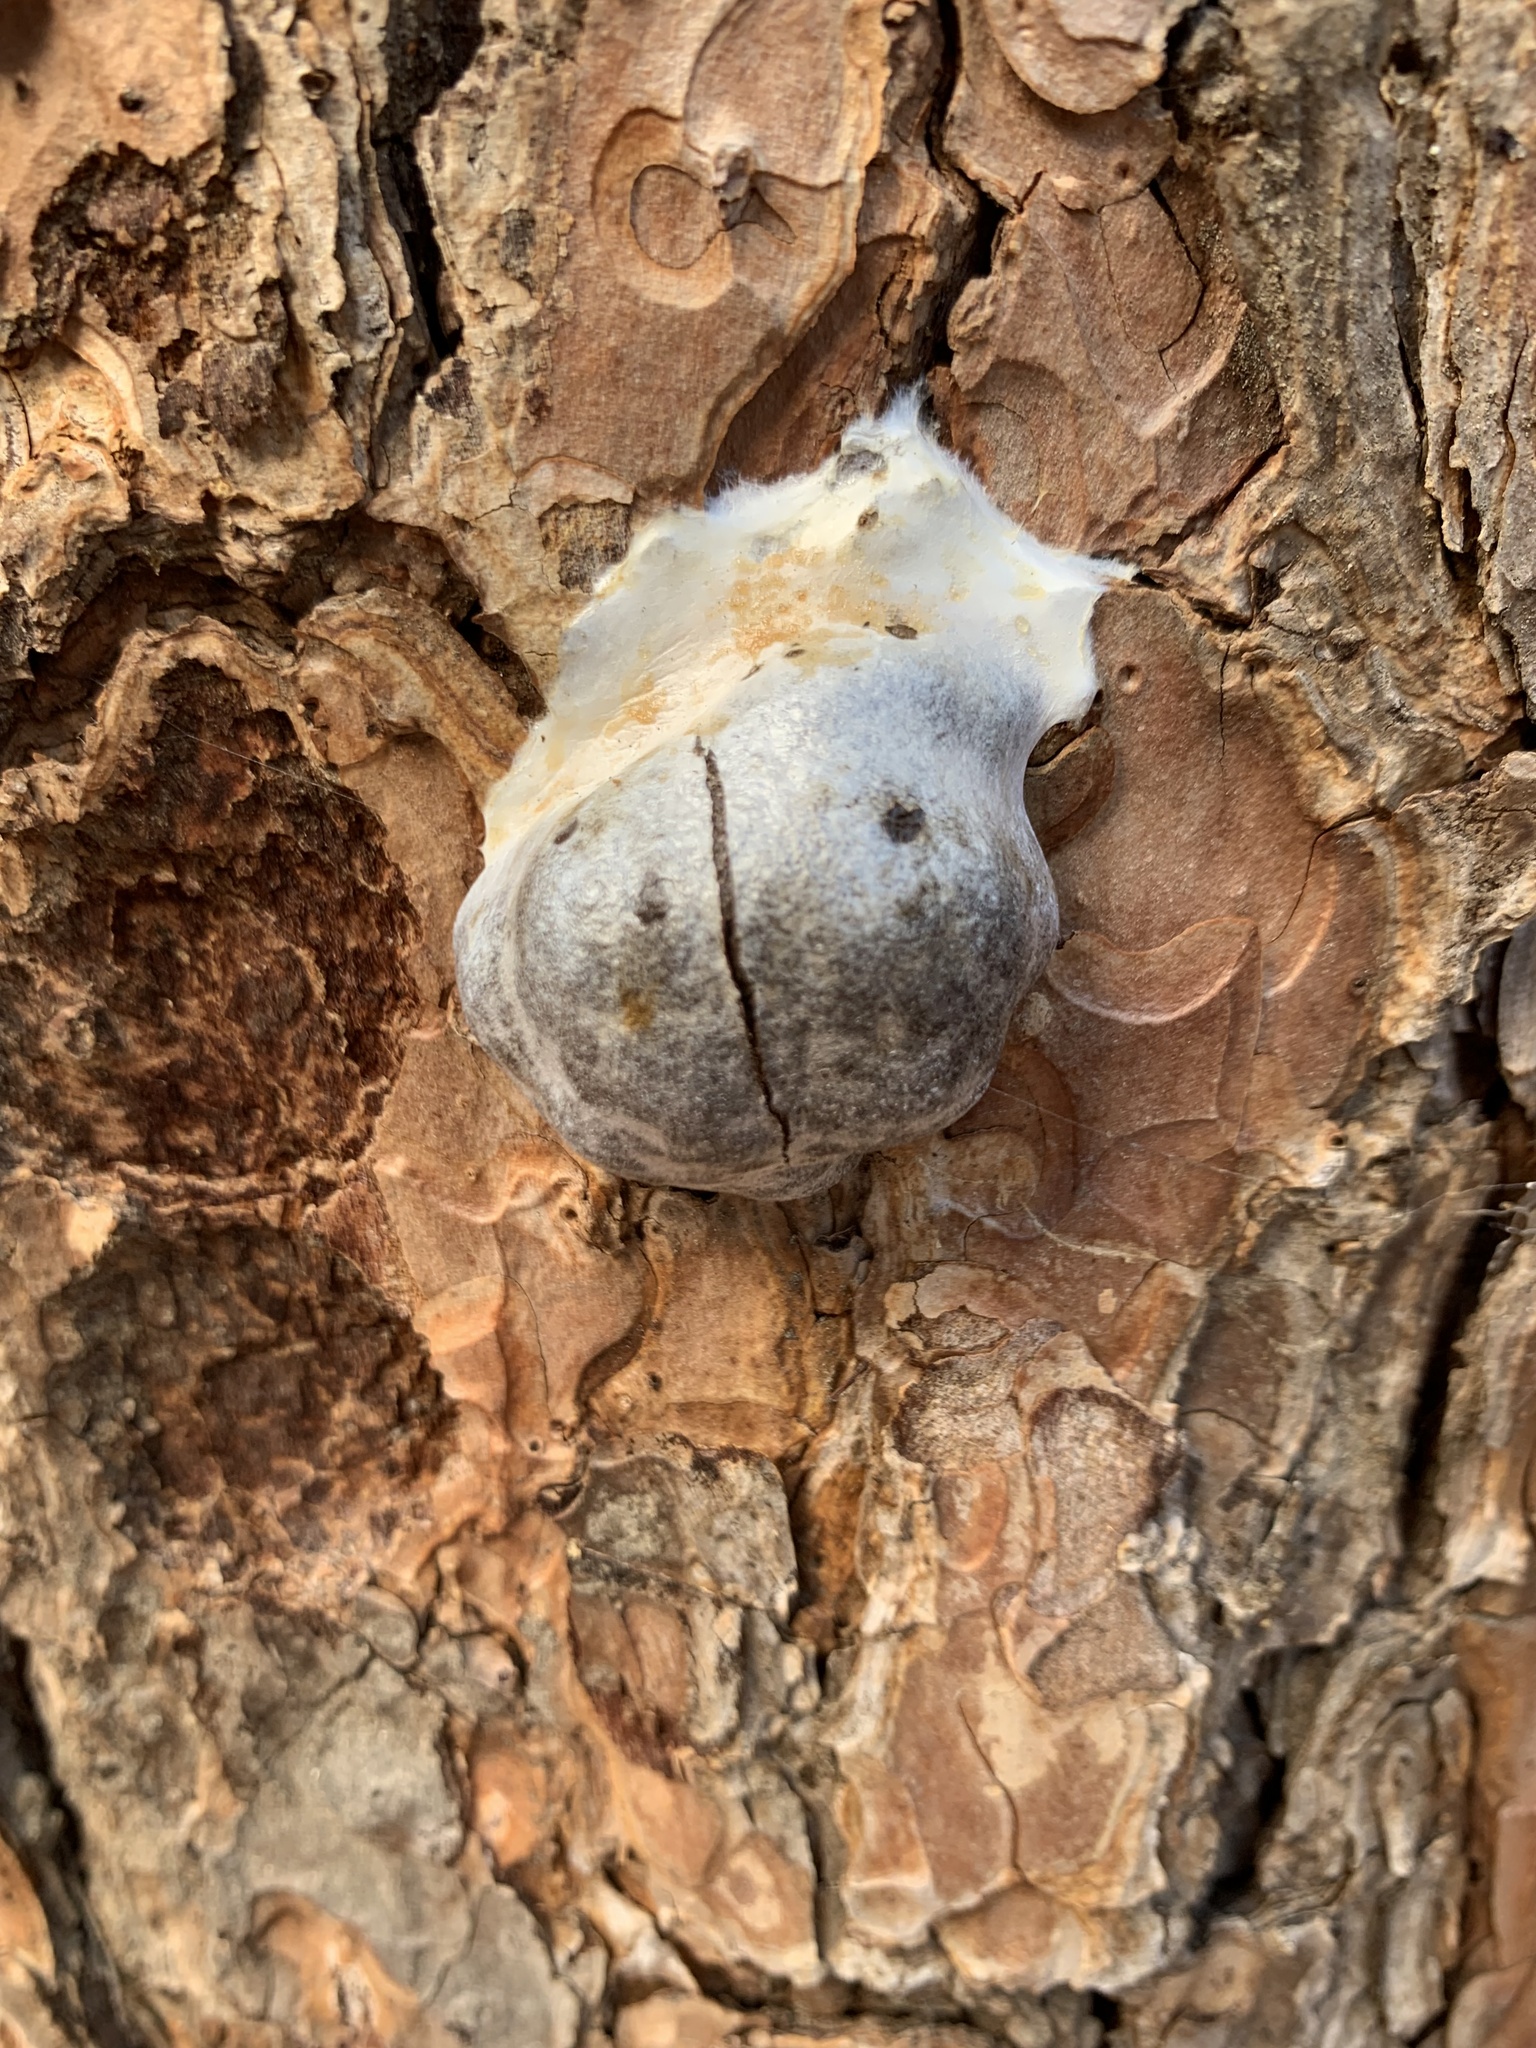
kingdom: Protozoa
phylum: Mycetozoa
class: Myxomycetes
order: Cribrariales
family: Tubiferaceae
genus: Reticularia
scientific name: Reticularia lycoperdon
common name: False puffball
